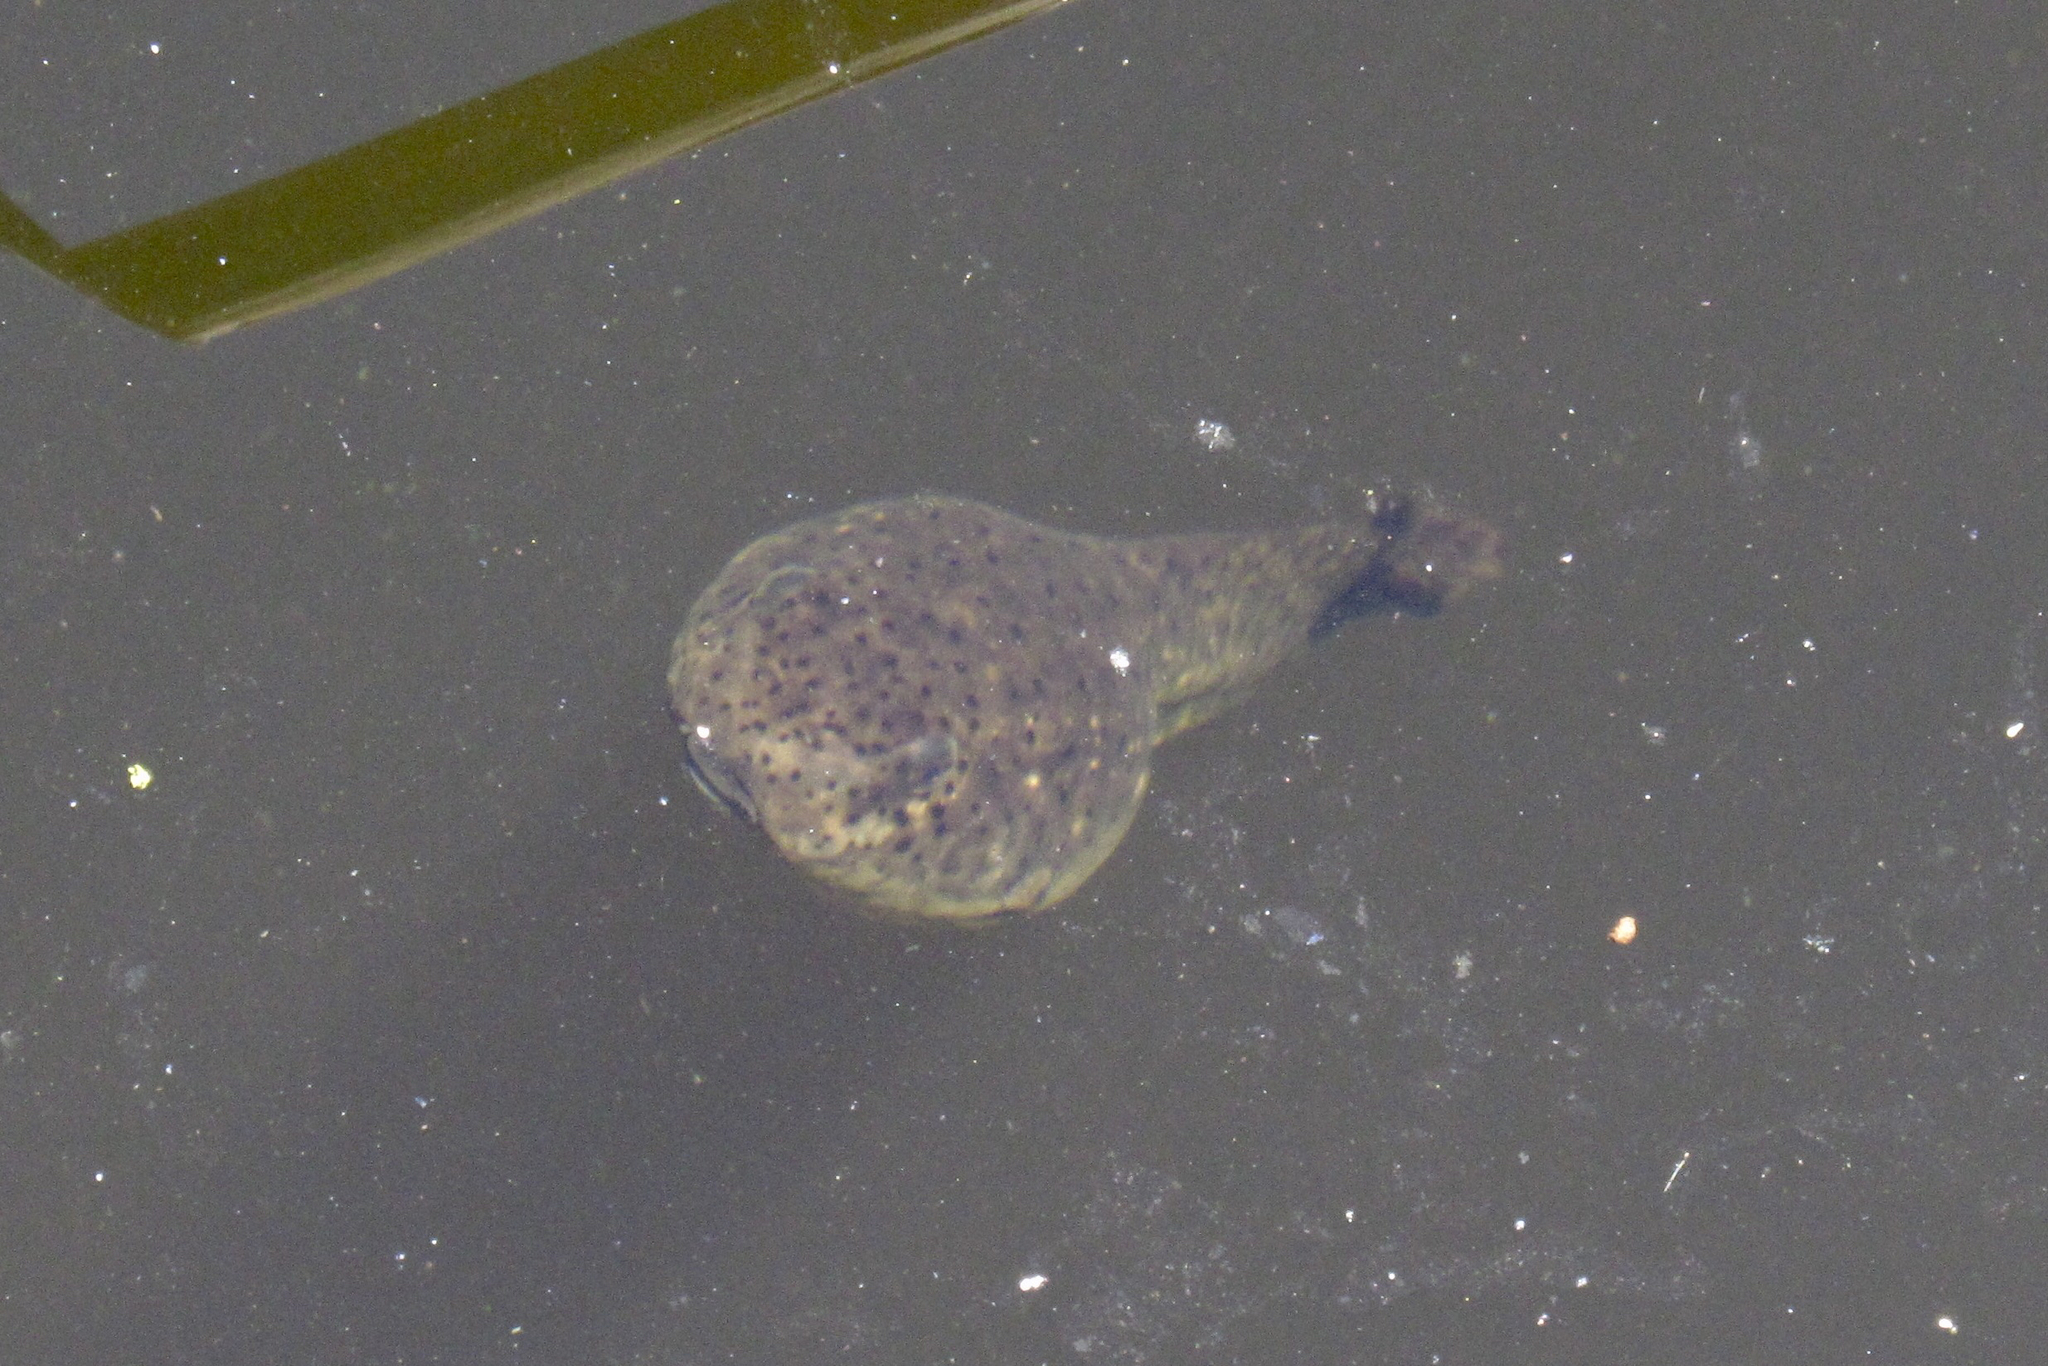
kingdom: Animalia
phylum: Chordata
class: Amphibia
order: Anura
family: Ranidae
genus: Lithobates
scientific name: Lithobates catesbeianus
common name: American bullfrog
